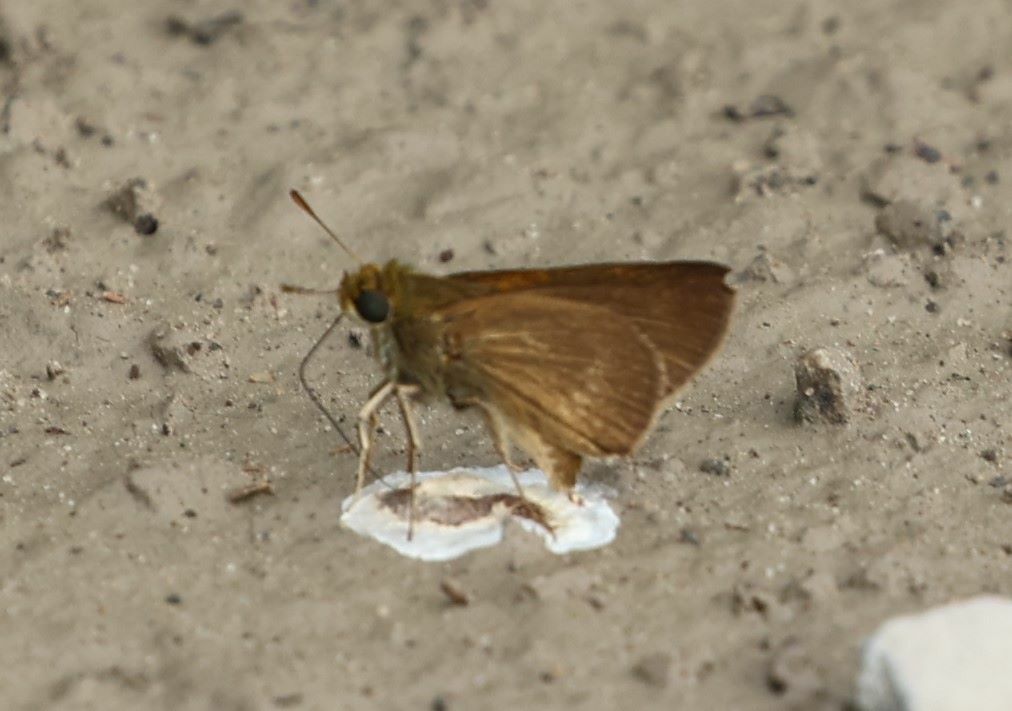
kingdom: Animalia
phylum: Arthropoda
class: Insecta
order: Lepidoptera
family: Hesperiidae
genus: Euphyes
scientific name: Euphyes vestris
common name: Dun skipper
